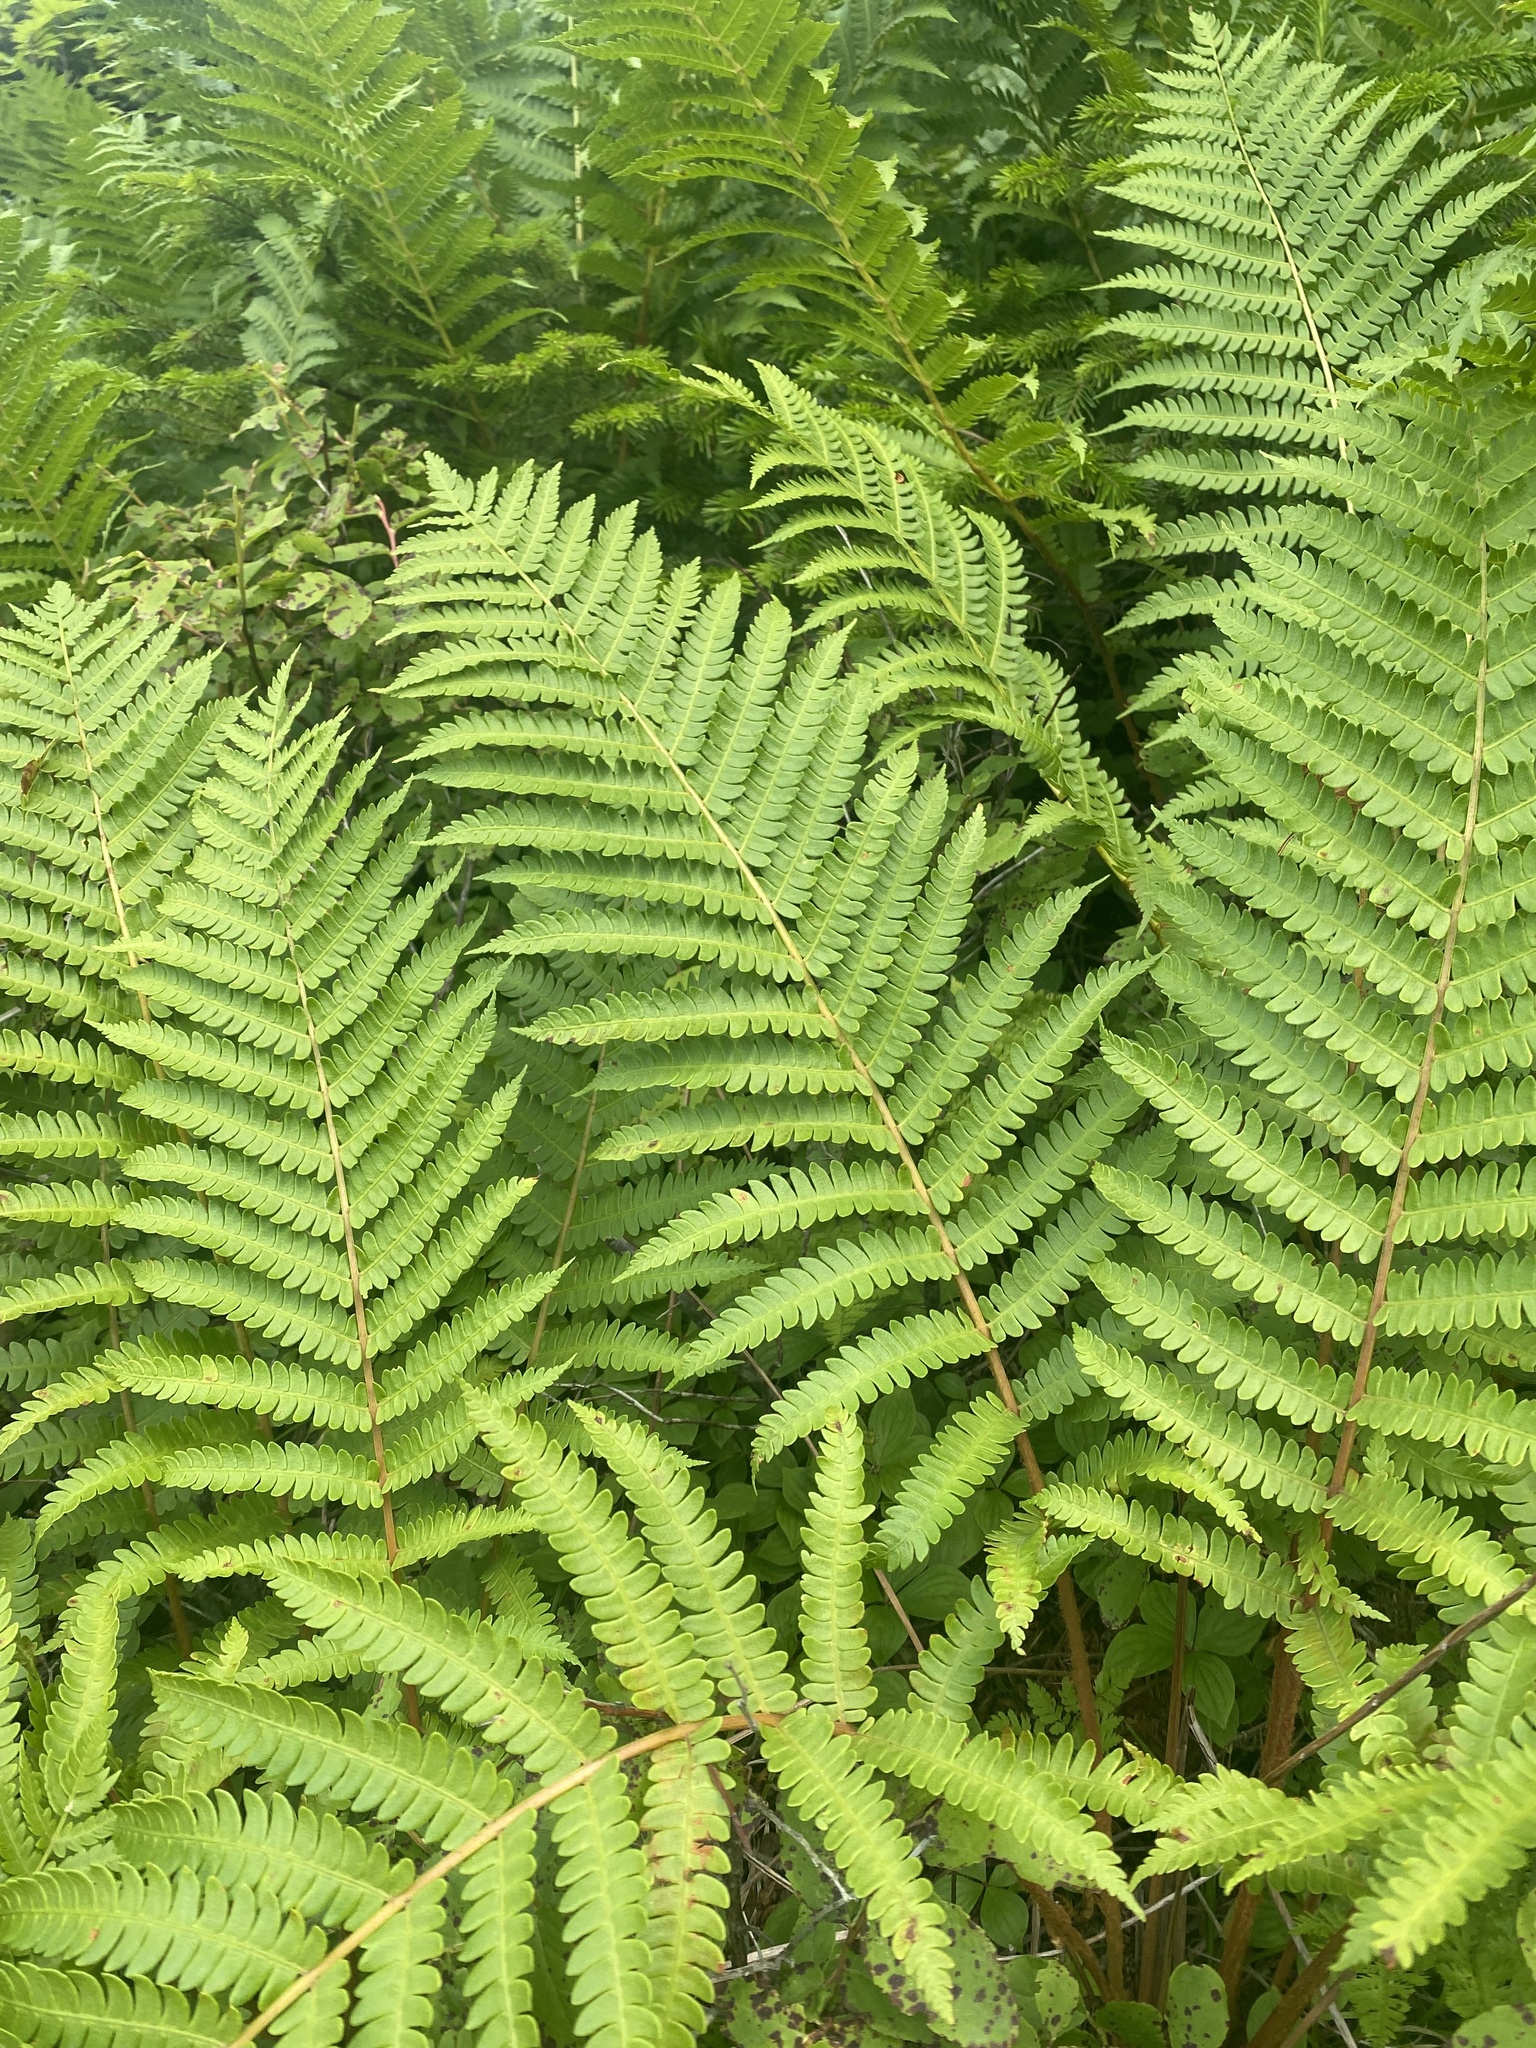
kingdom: Plantae
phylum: Tracheophyta
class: Polypodiopsida
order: Osmundales
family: Osmundaceae
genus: Osmundastrum
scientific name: Osmundastrum cinnamomeum
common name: Cinnamon fern
